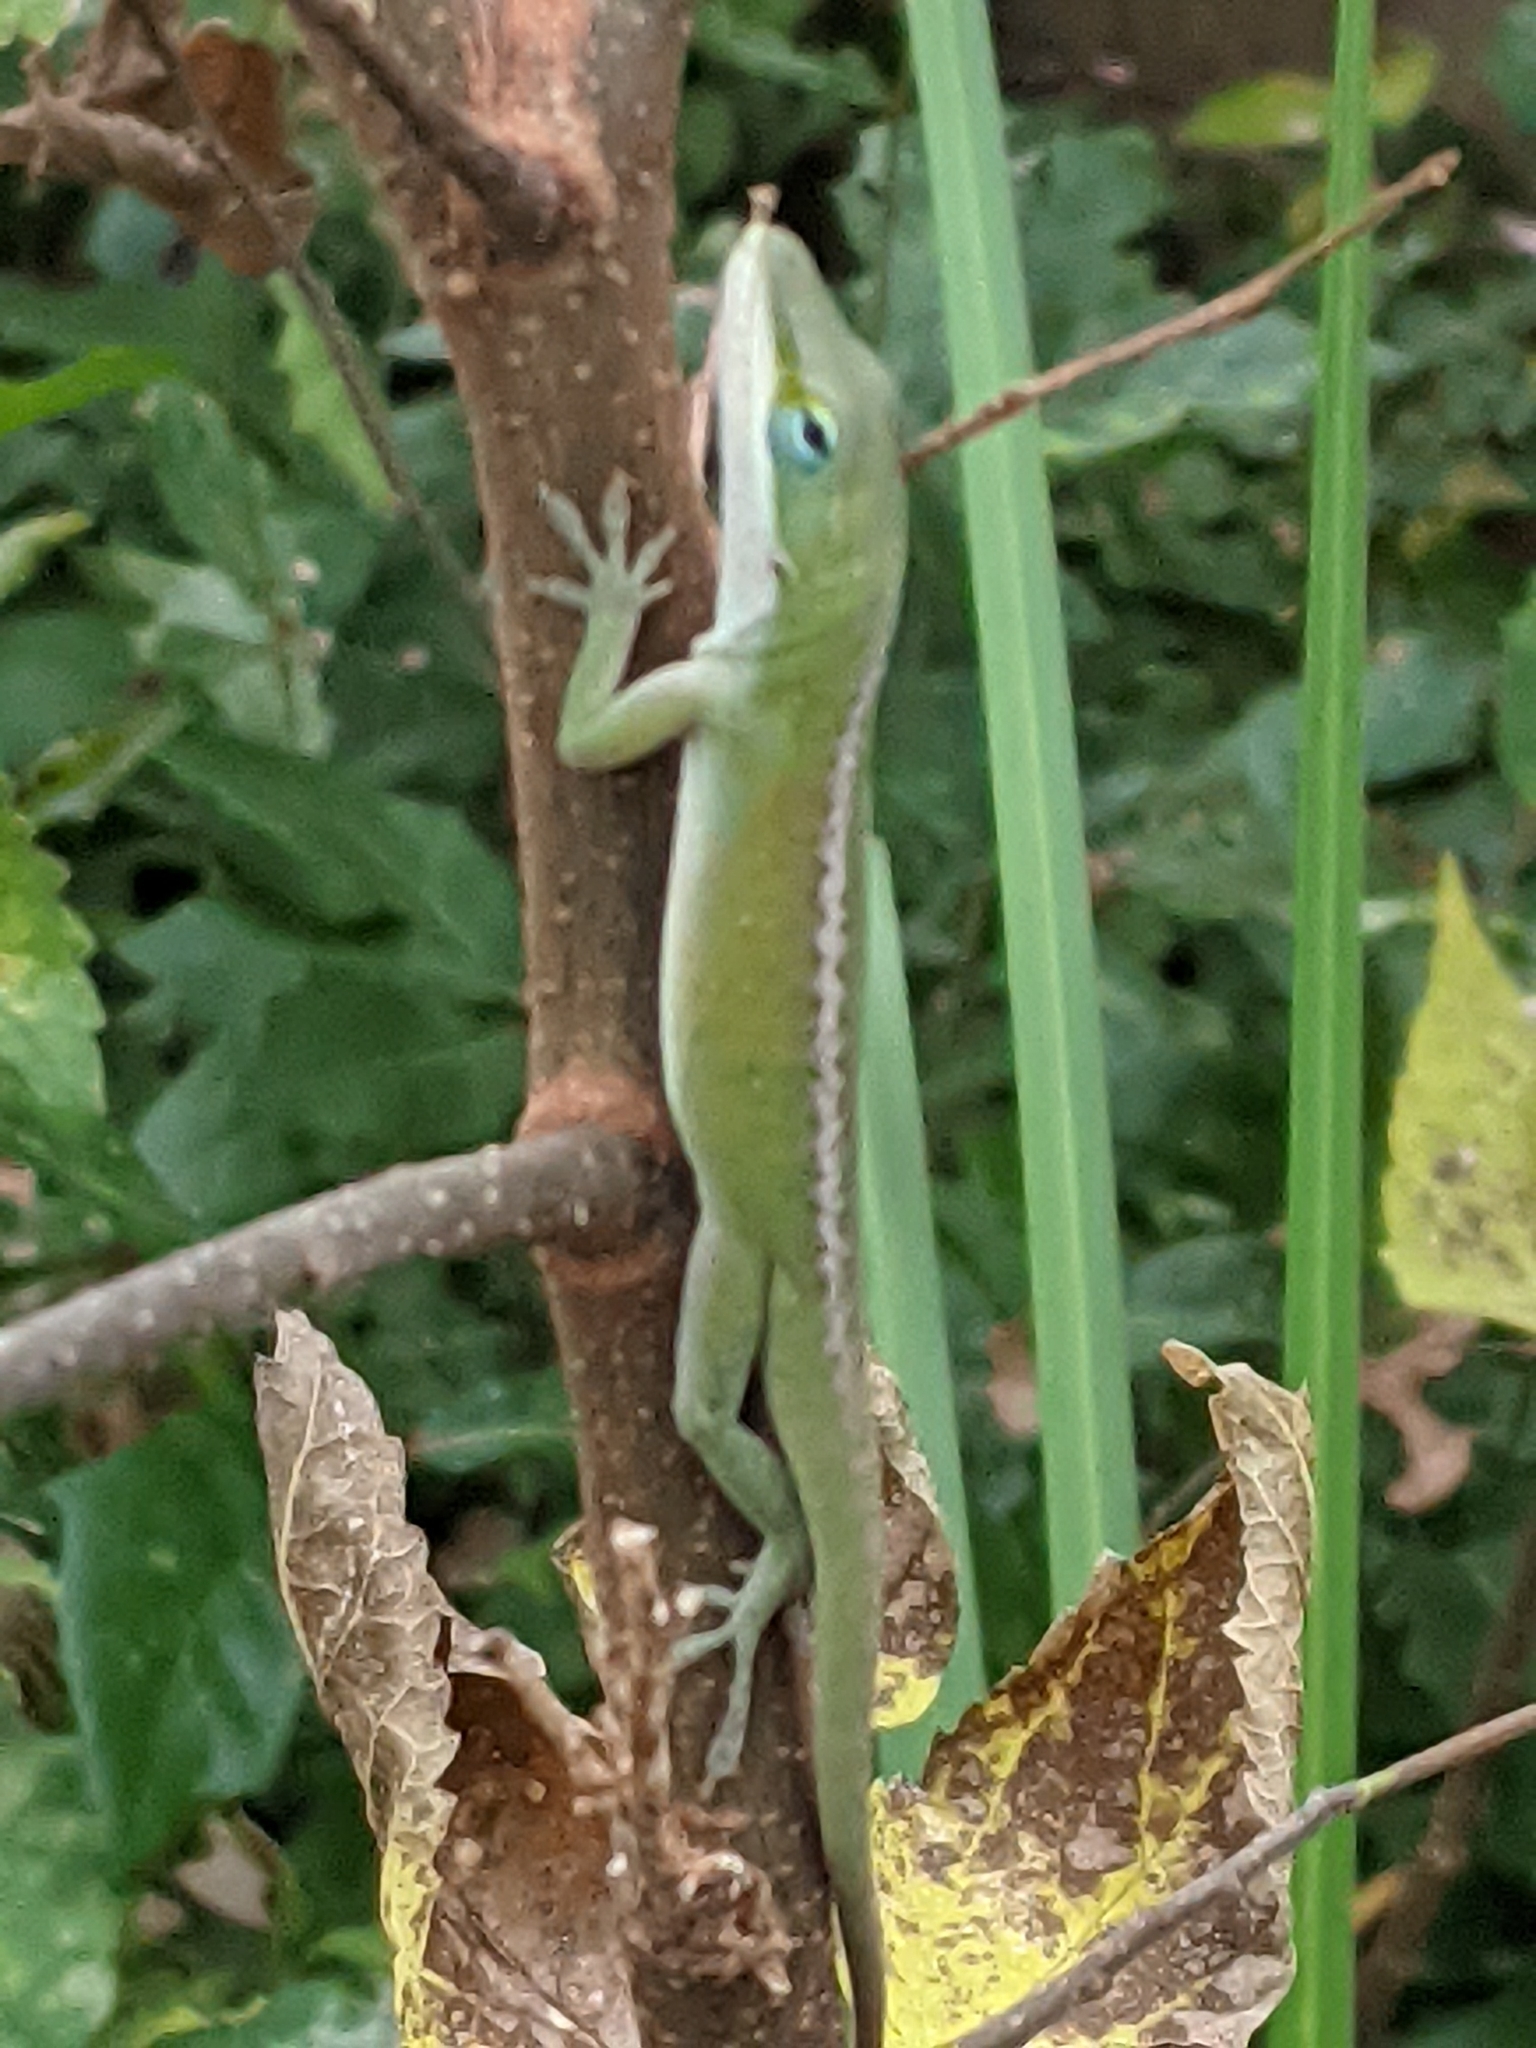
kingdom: Animalia
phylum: Chordata
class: Squamata
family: Dactyloidae
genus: Anolis
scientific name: Anolis carolinensis
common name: Green anole
